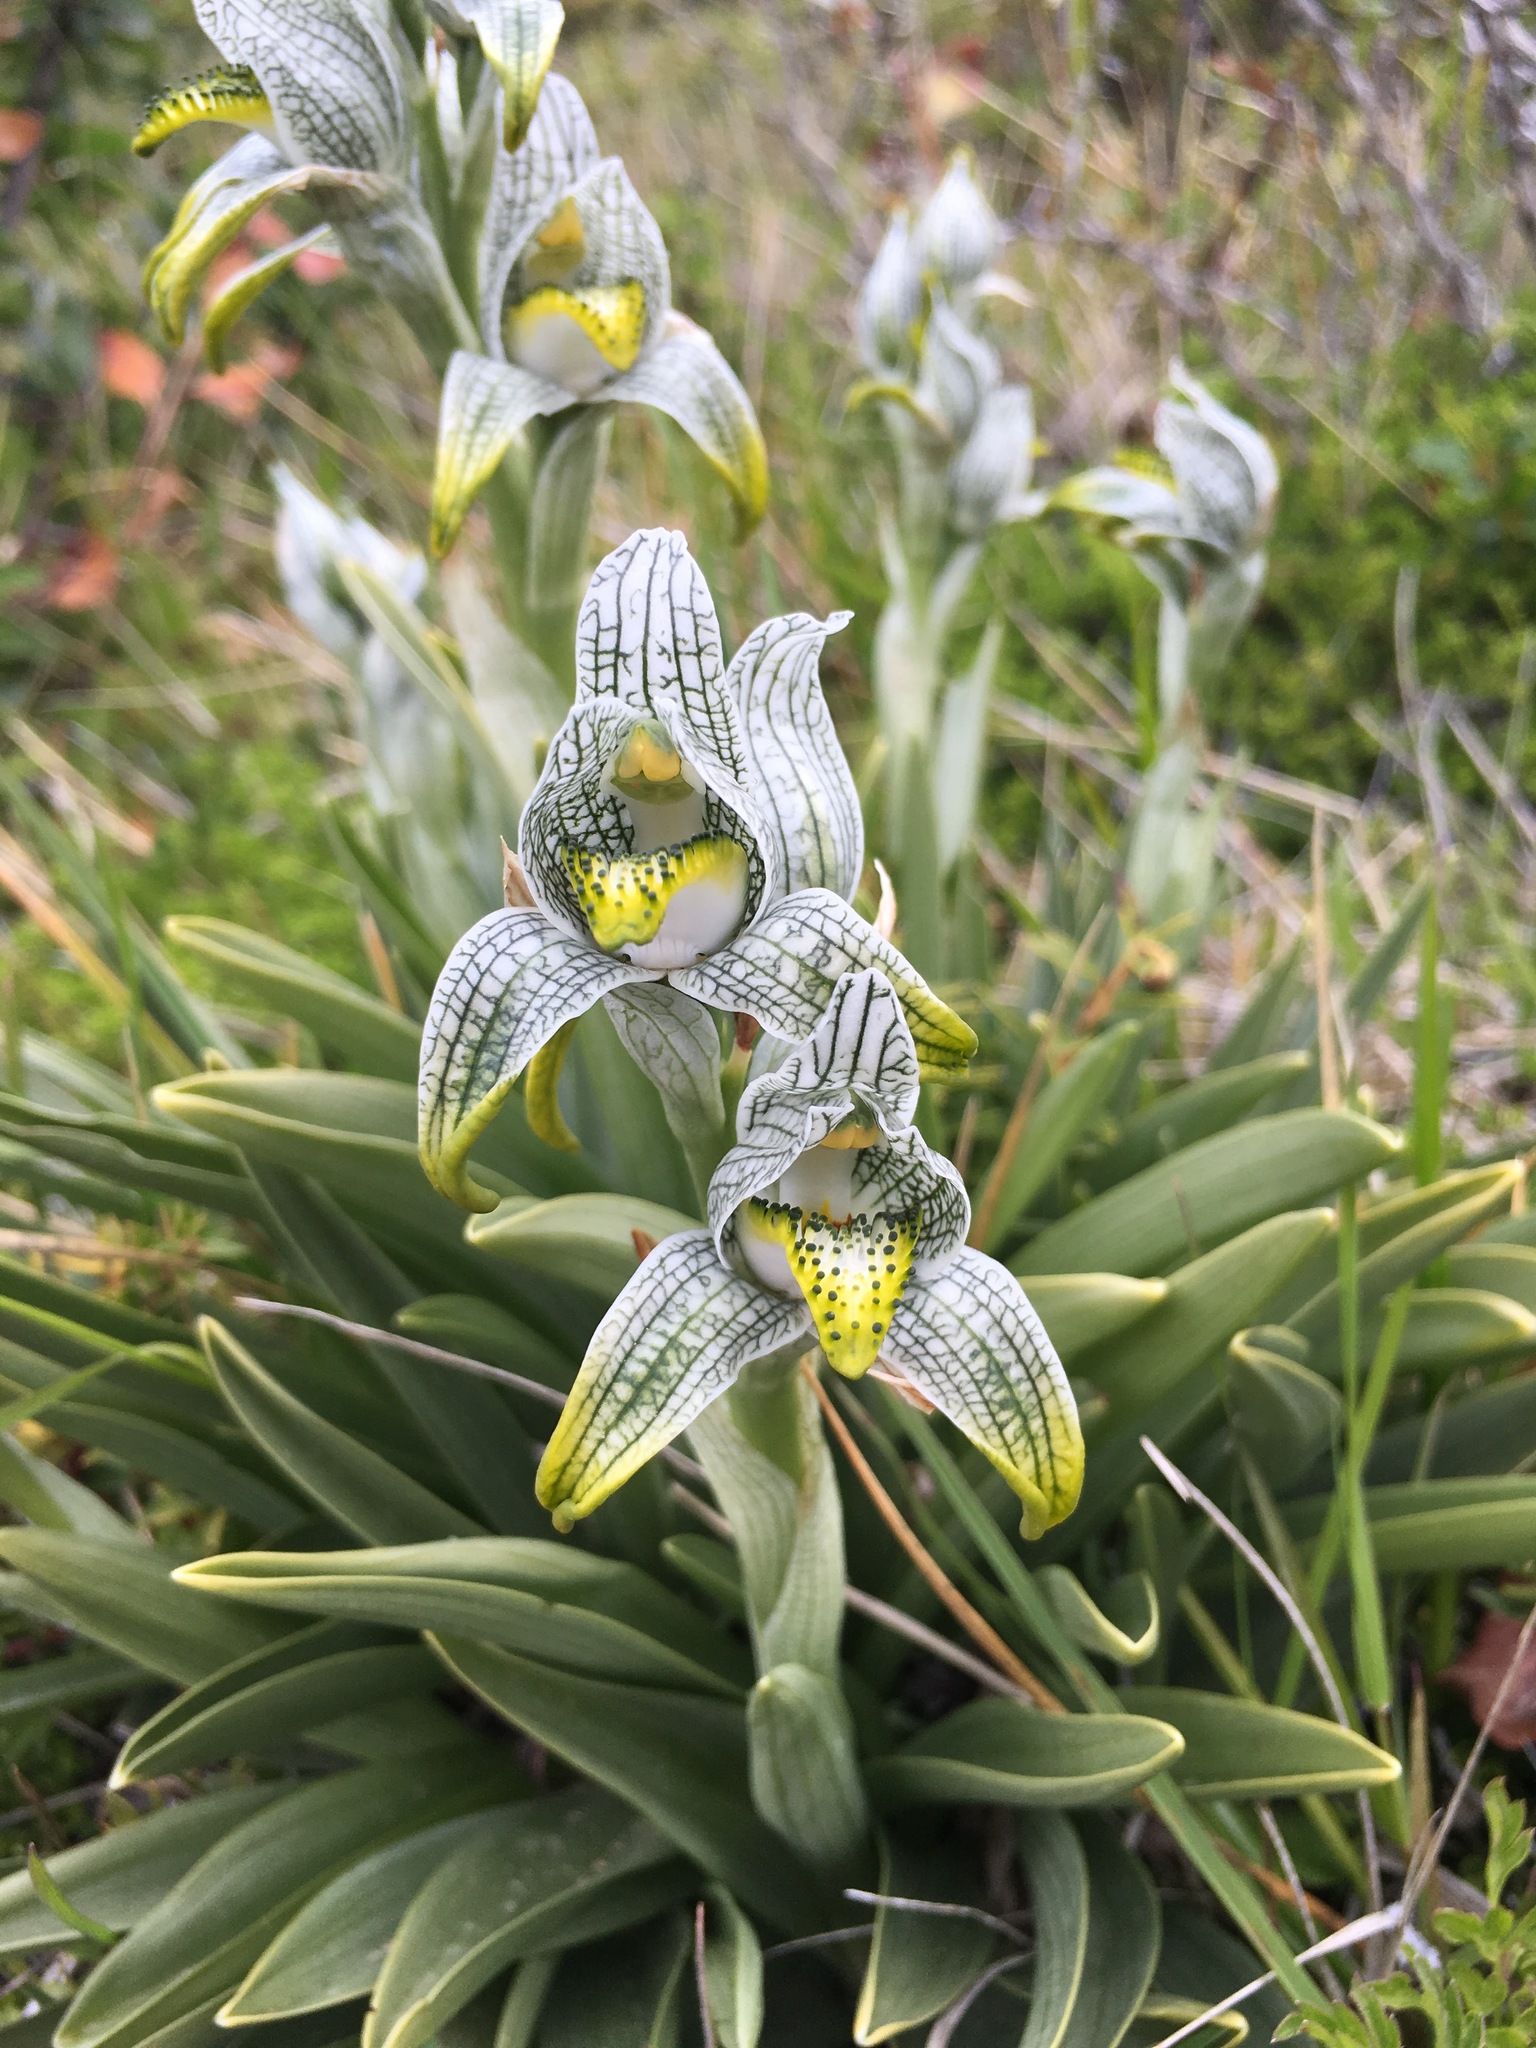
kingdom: Plantae
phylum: Tracheophyta
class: Liliopsida
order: Asparagales
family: Orchidaceae
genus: Chloraea
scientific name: Chloraea magellanica
